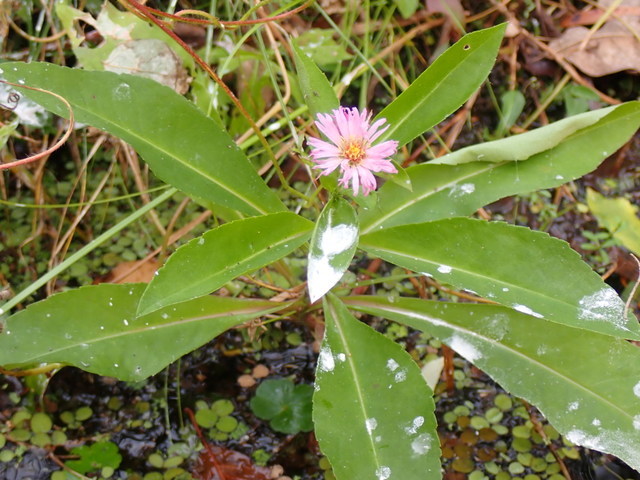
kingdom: Plantae
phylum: Tracheophyta
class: Magnoliopsida
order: Asterales
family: Asteraceae
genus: Symphyotrichum
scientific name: Symphyotrichum elliottii
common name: Southern swamp aster
